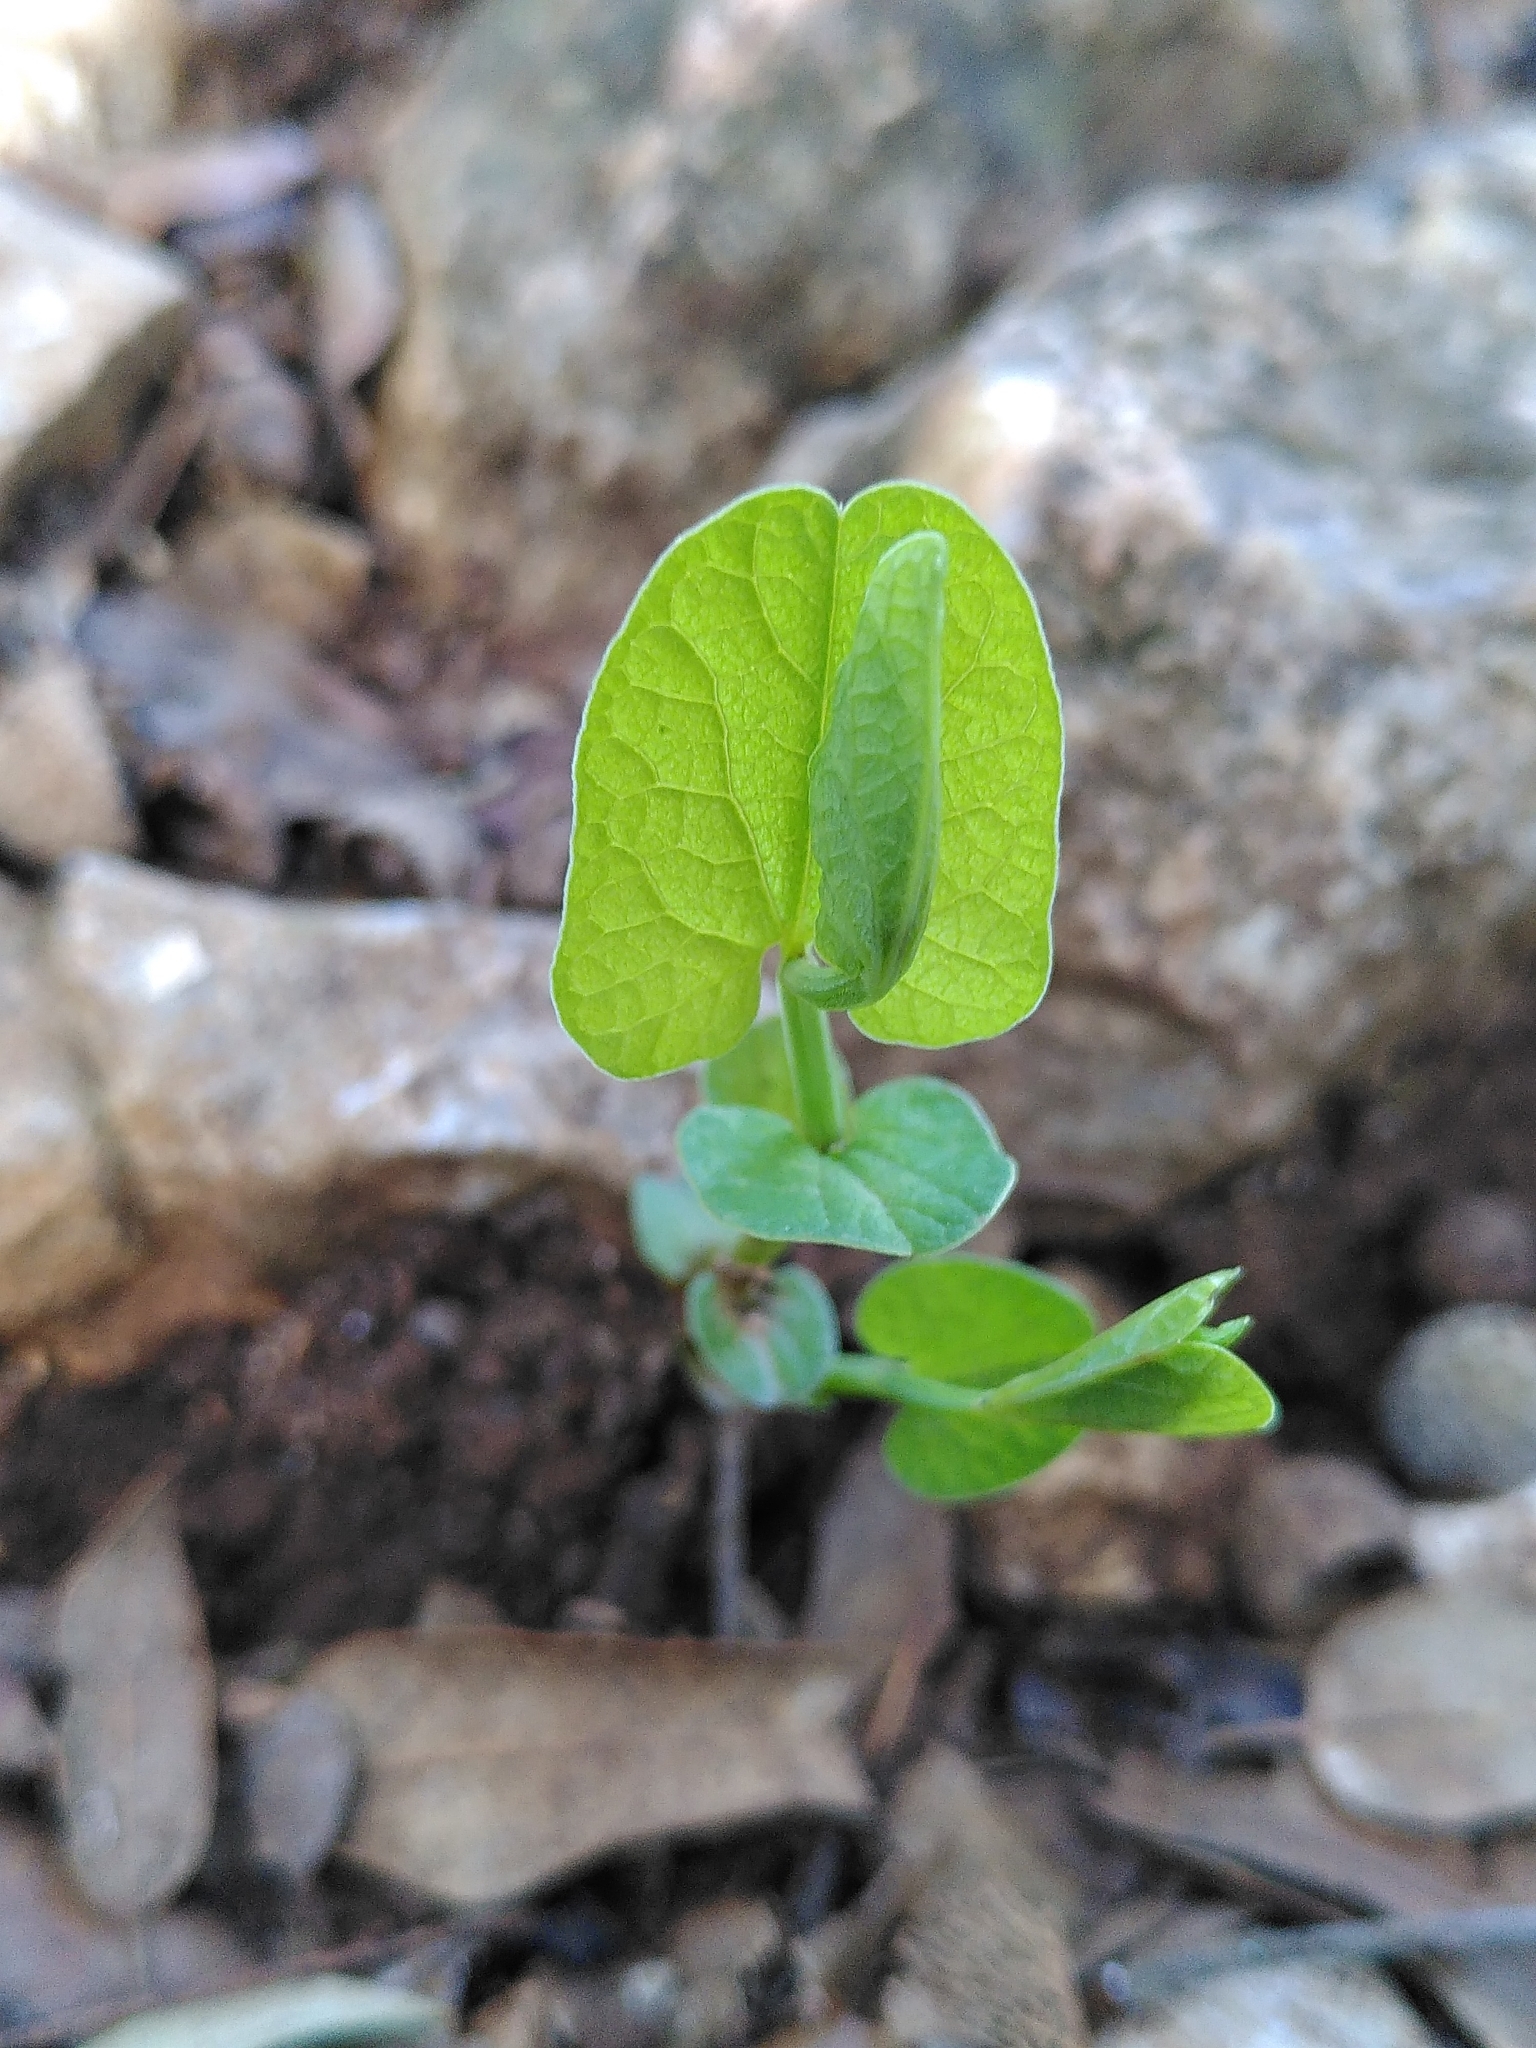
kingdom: Plantae
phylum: Tracheophyta
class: Magnoliopsida
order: Piperales
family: Aristolochiaceae
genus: Aristolochia
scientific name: Aristolochia rotunda
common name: Smearwort
